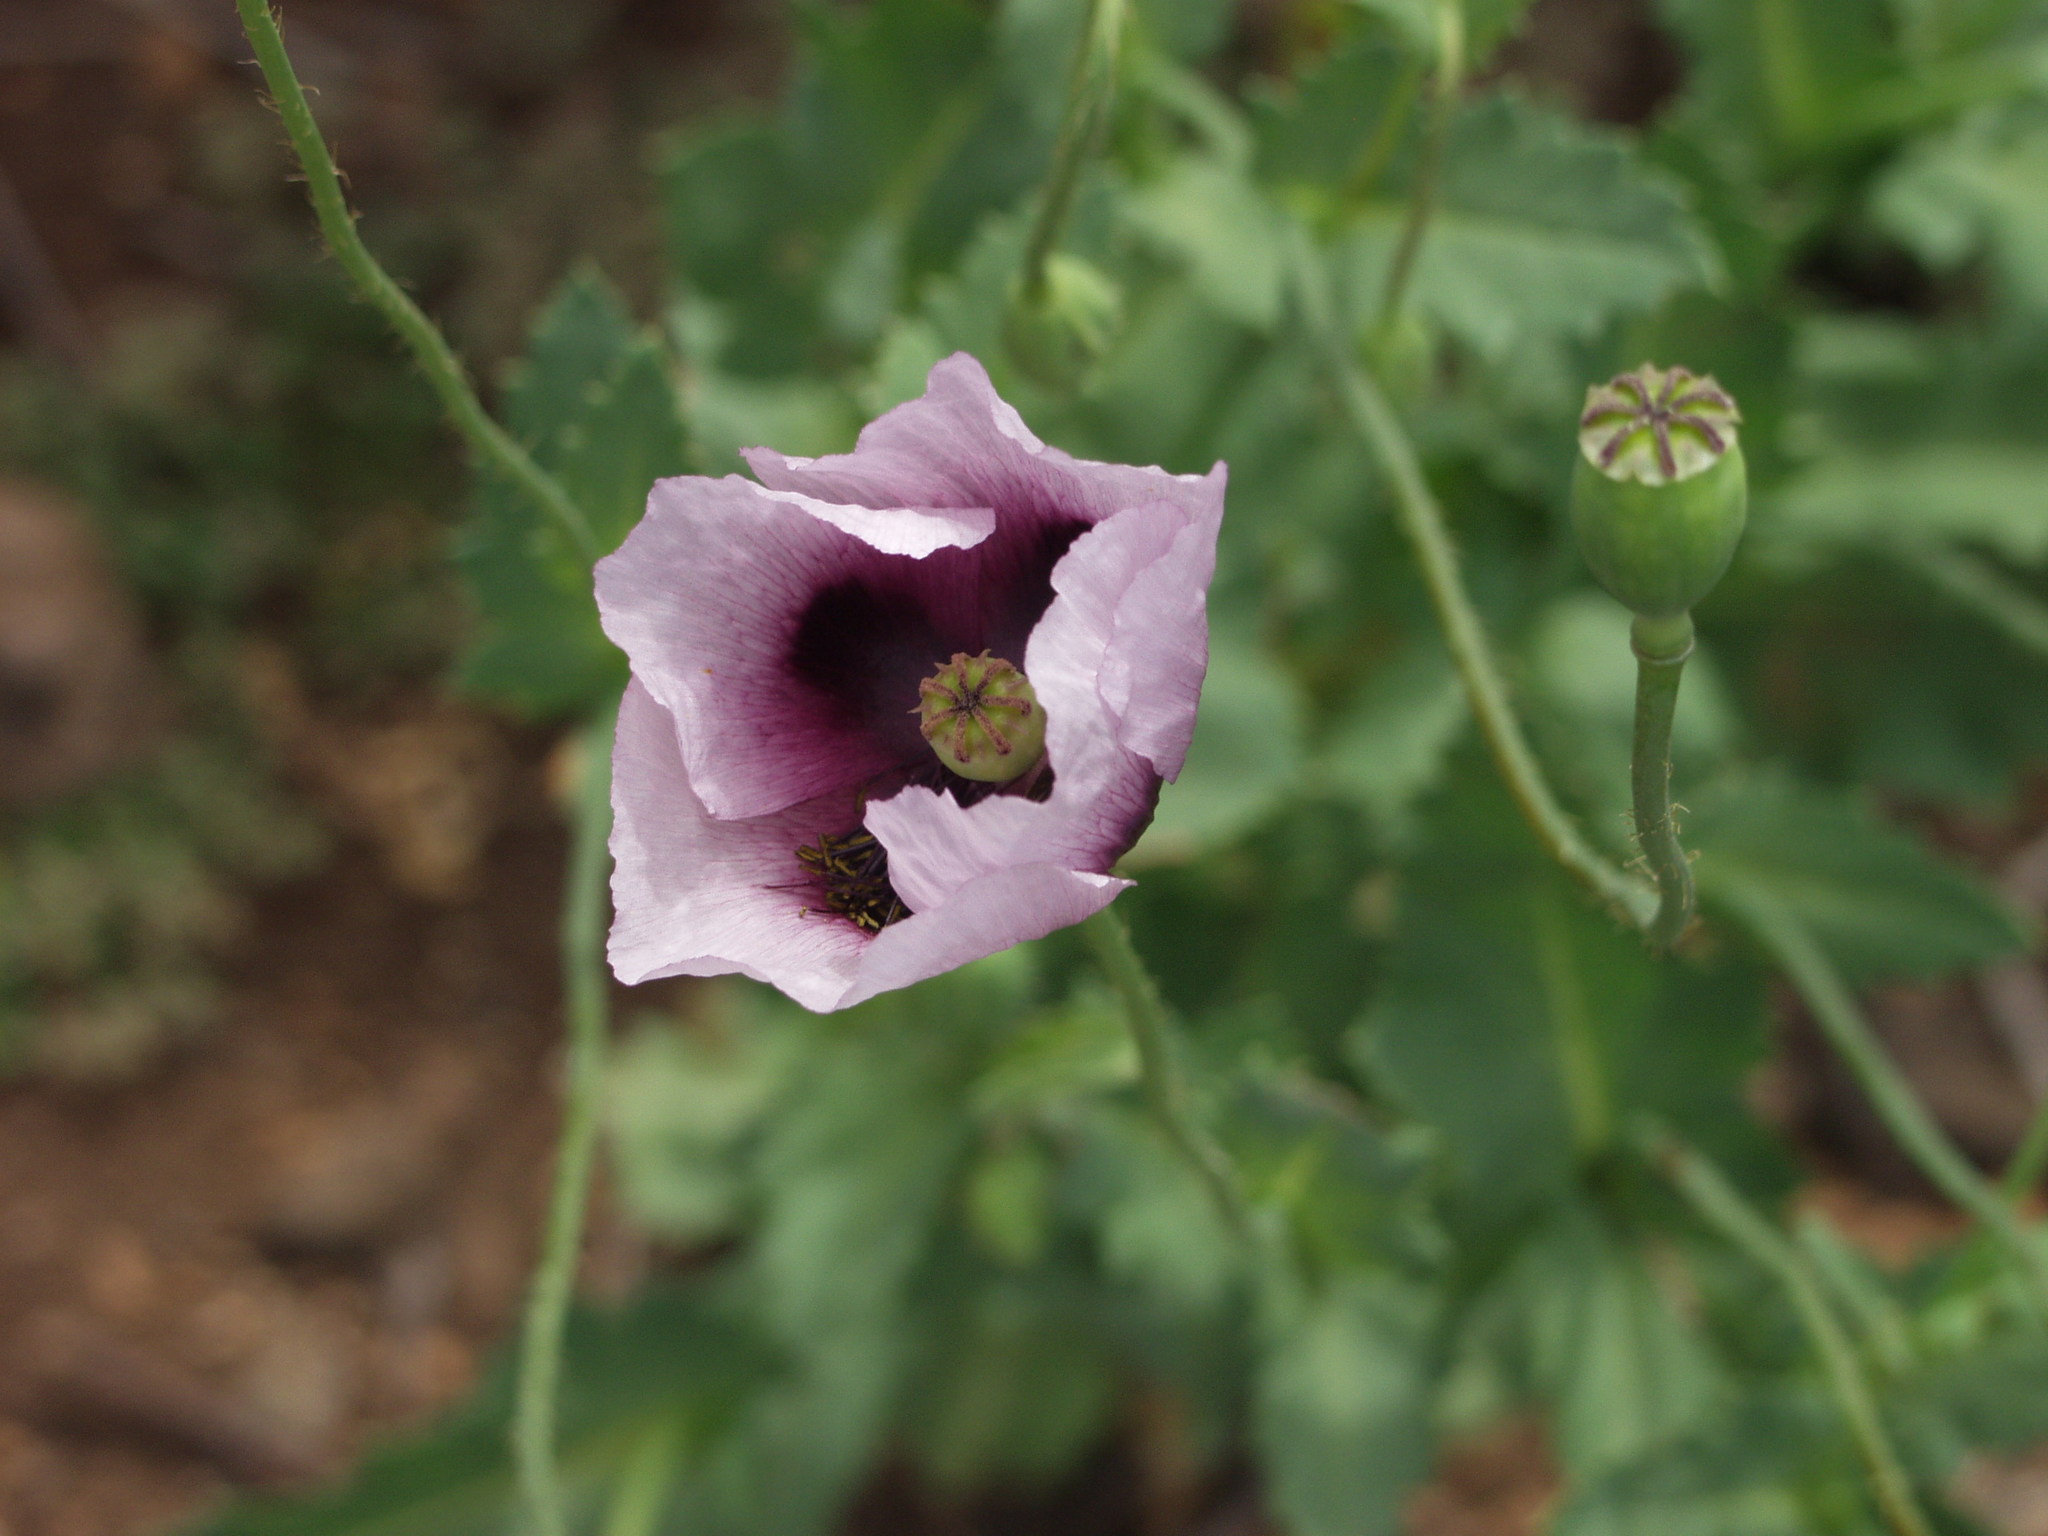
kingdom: Plantae
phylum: Tracheophyta
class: Magnoliopsida
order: Ranunculales
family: Papaveraceae
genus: Papaver
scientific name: Papaver somniferum
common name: Opium poppy
